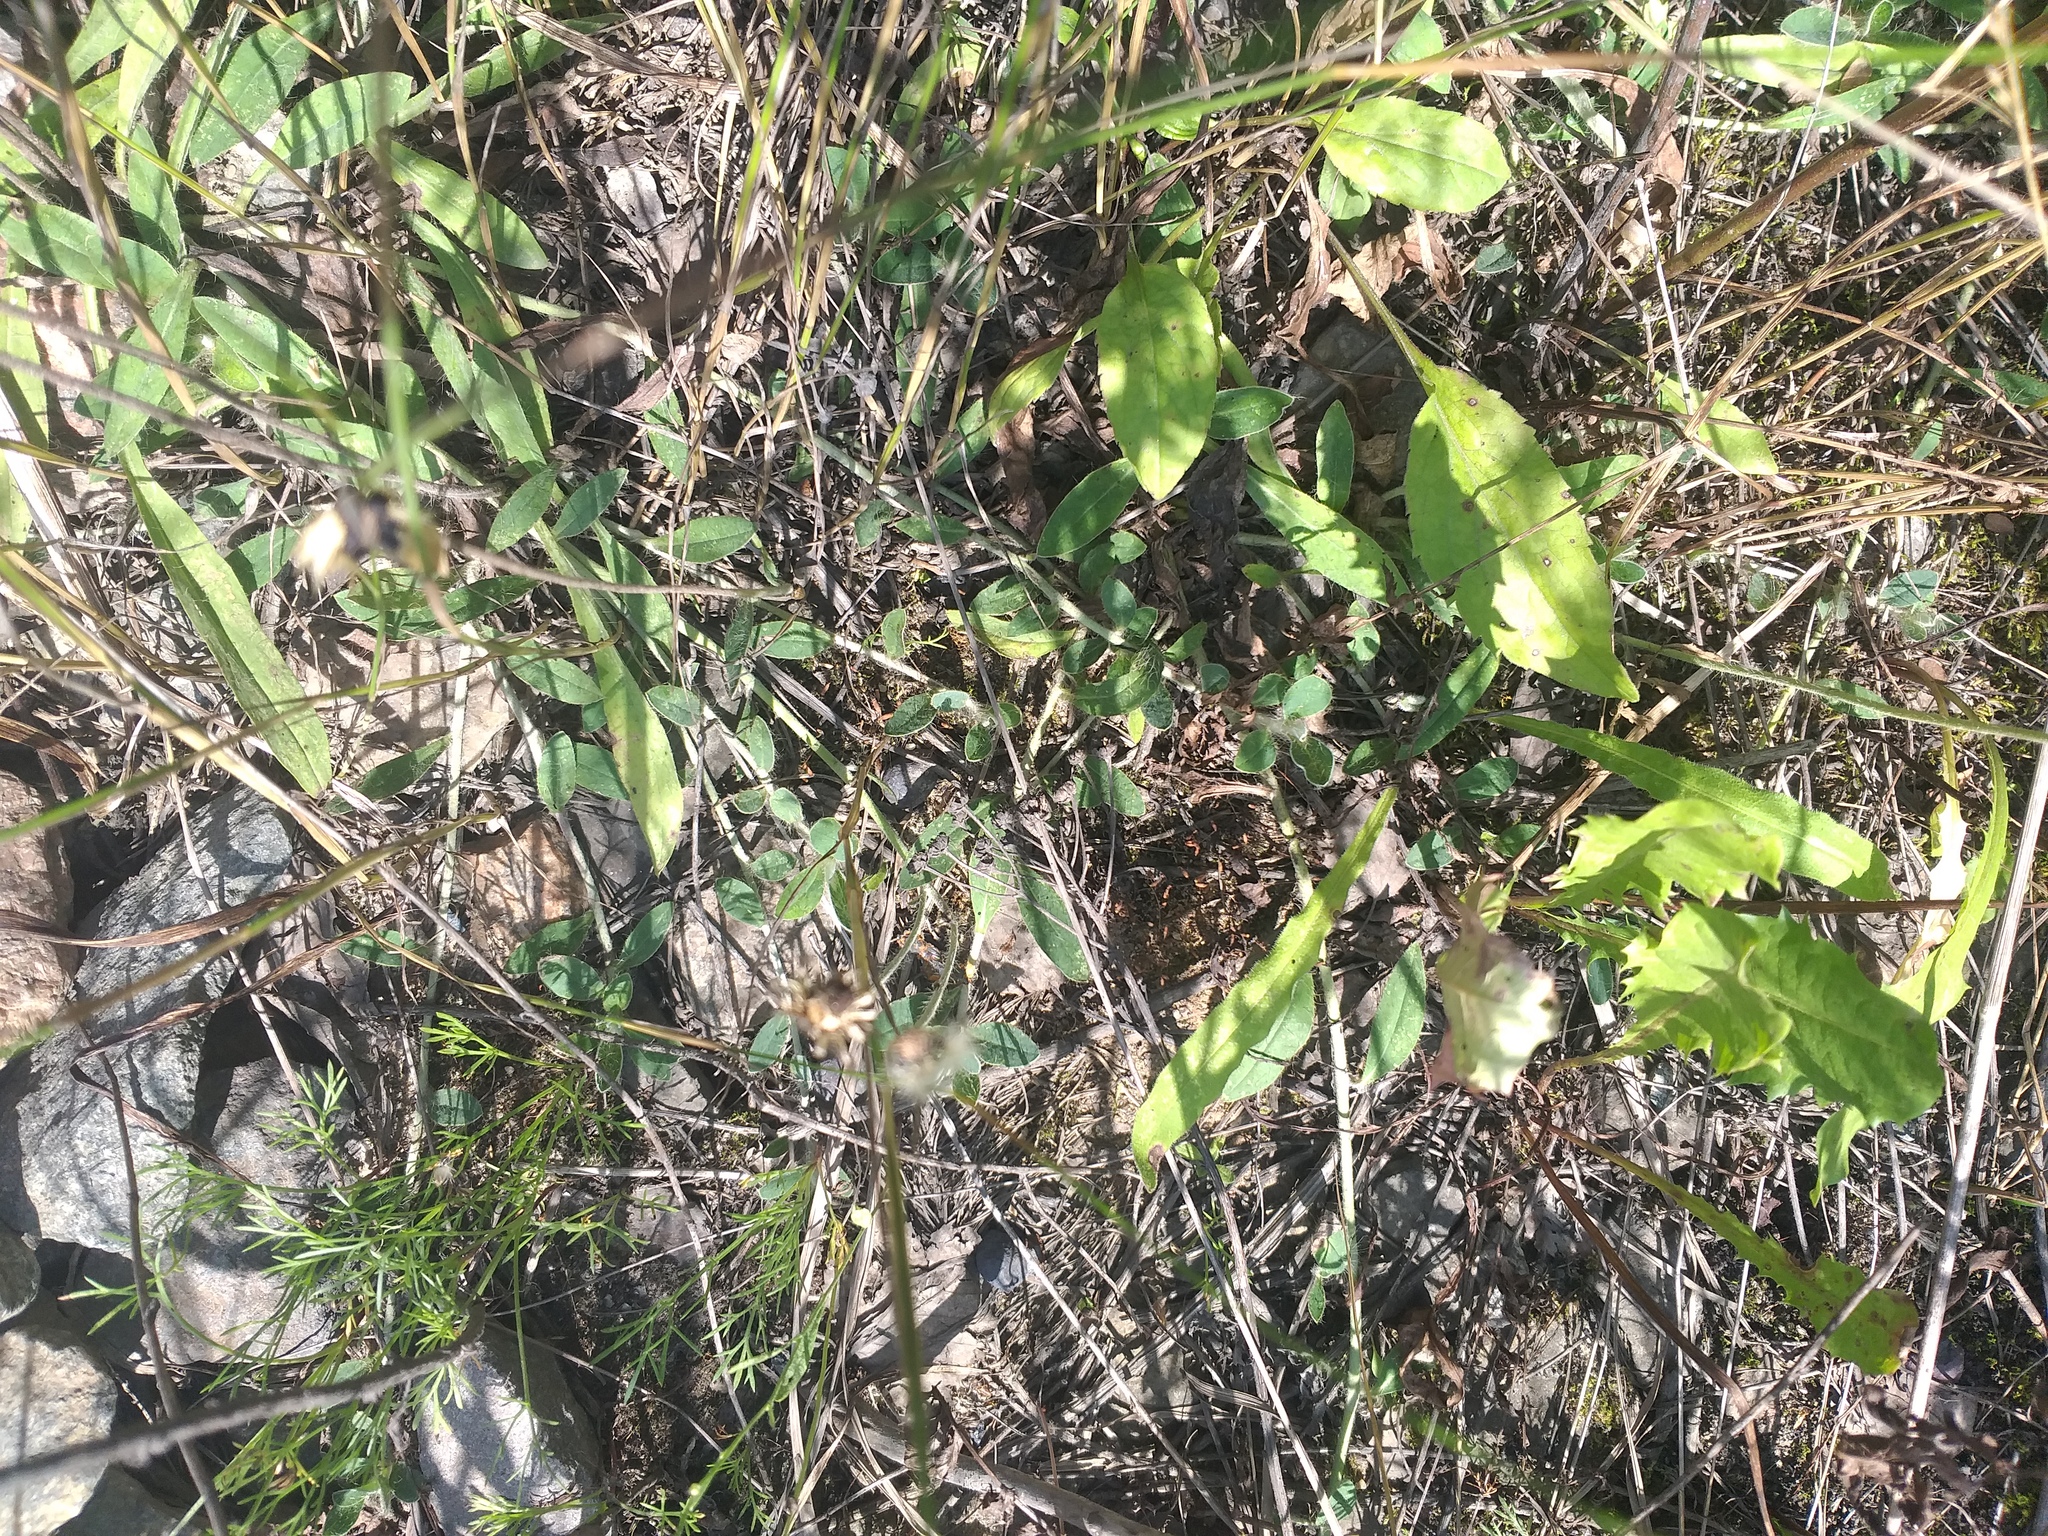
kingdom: Plantae
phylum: Tracheophyta
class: Magnoliopsida
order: Asterales
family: Asteraceae
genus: Pilosella
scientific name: Pilosella officinarum
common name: Mouse-ear hawkweed
